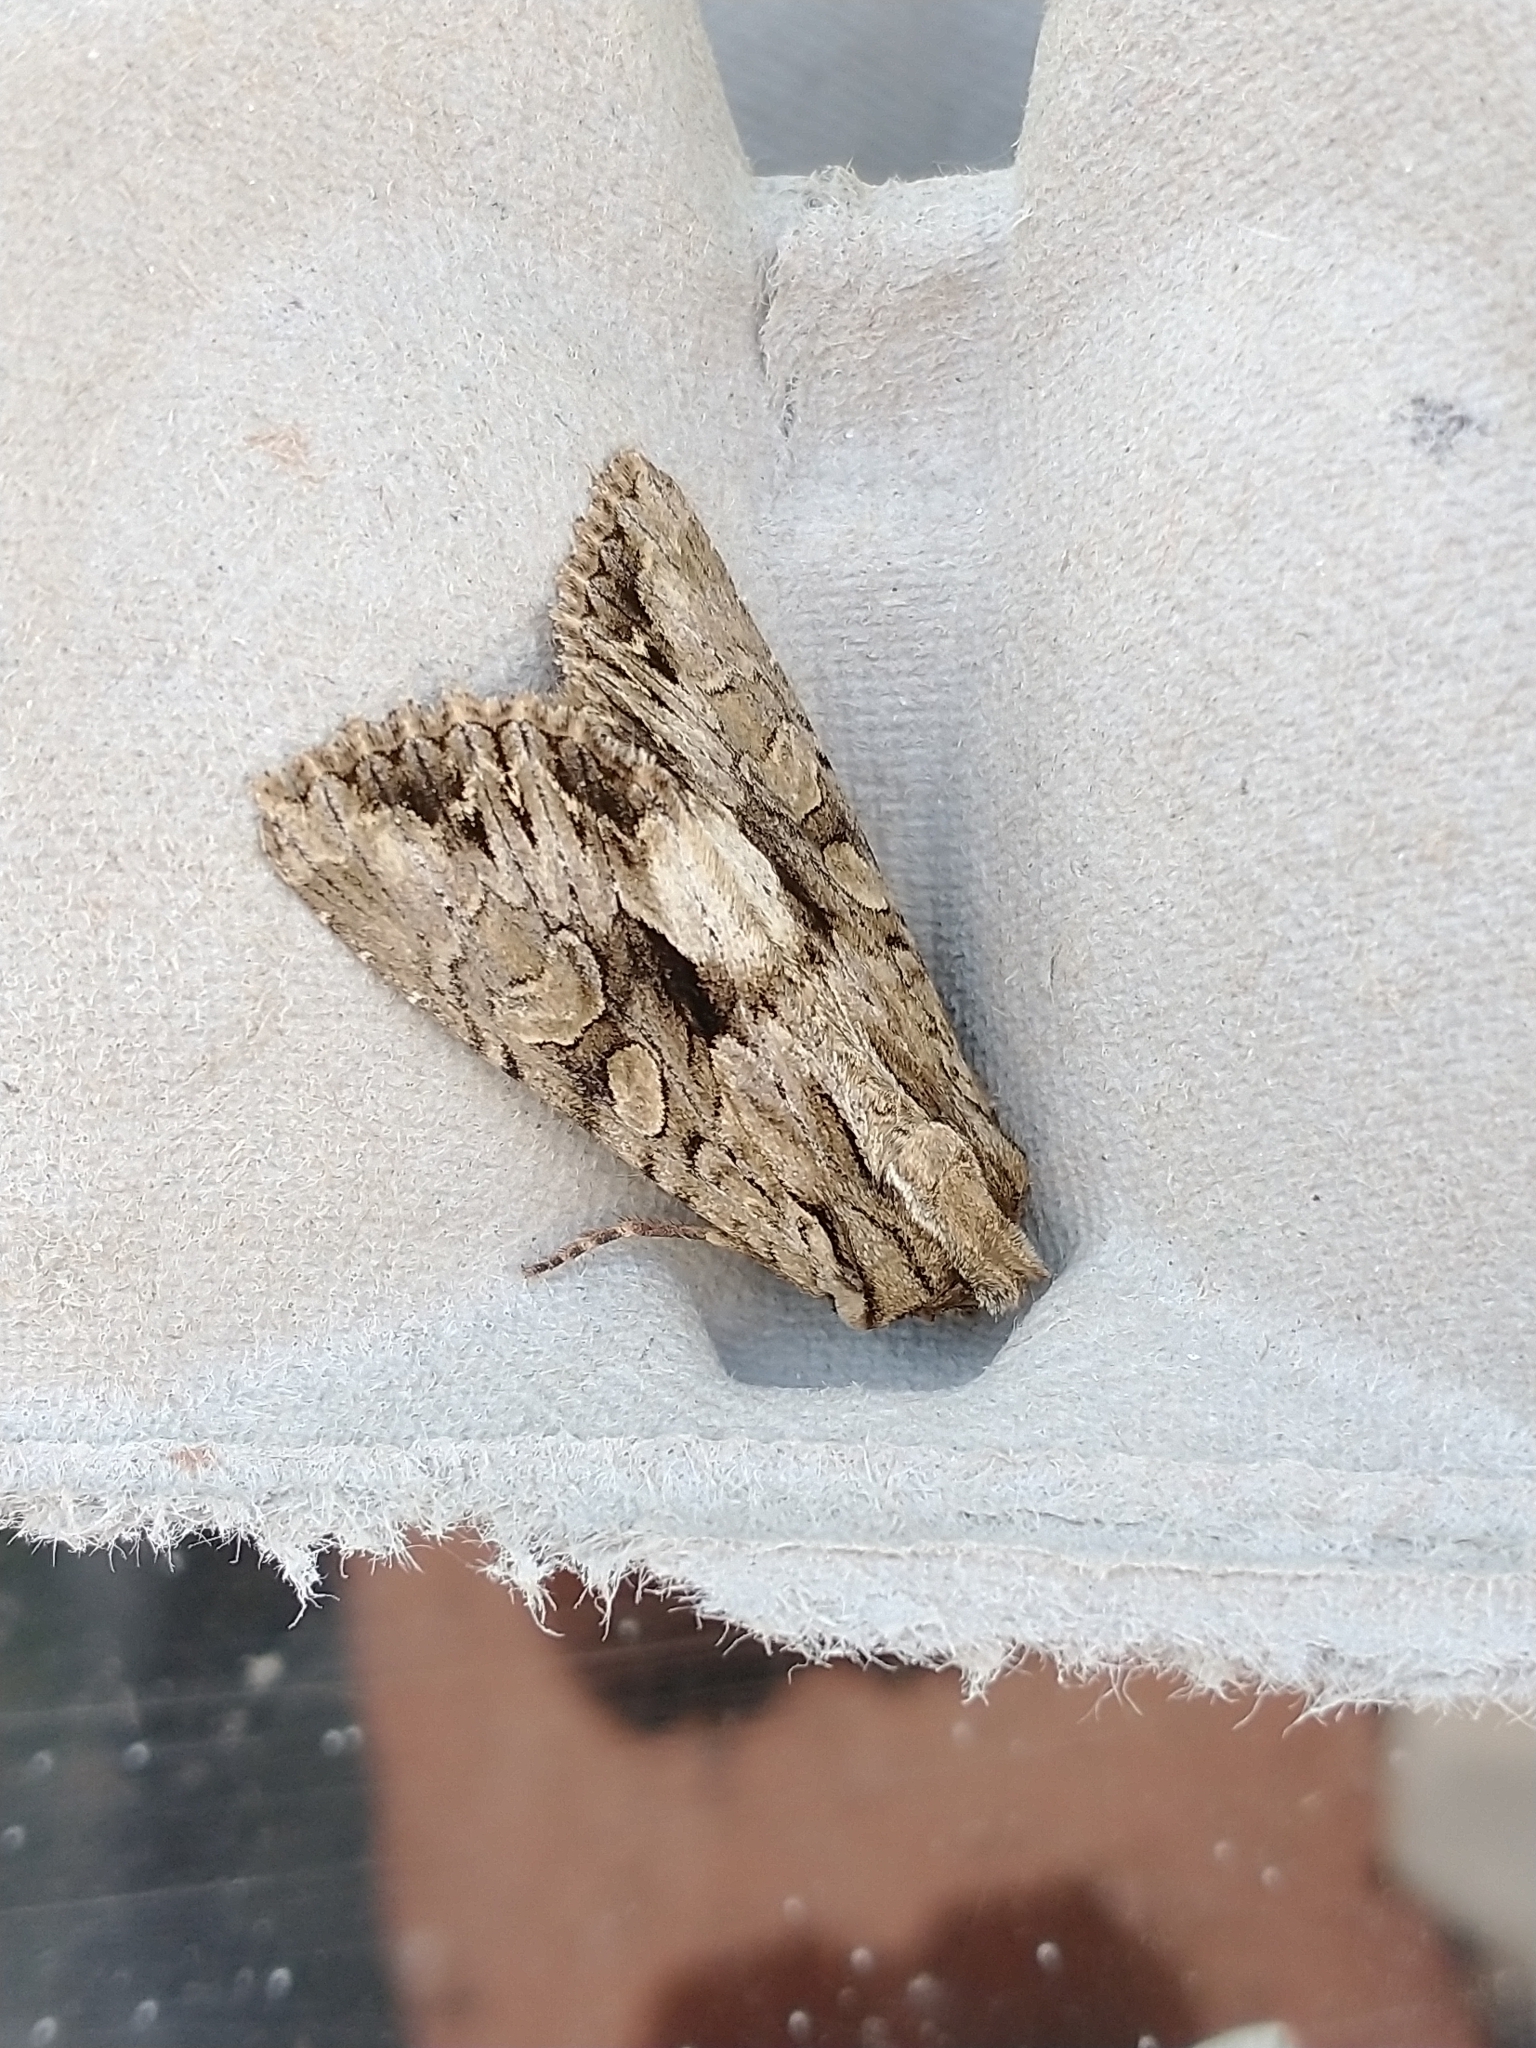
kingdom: Animalia
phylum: Arthropoda
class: Insecta
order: Lepidoptera
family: Noctuidae
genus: Apamea
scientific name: Apamea monoglypha
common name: Dark arches
